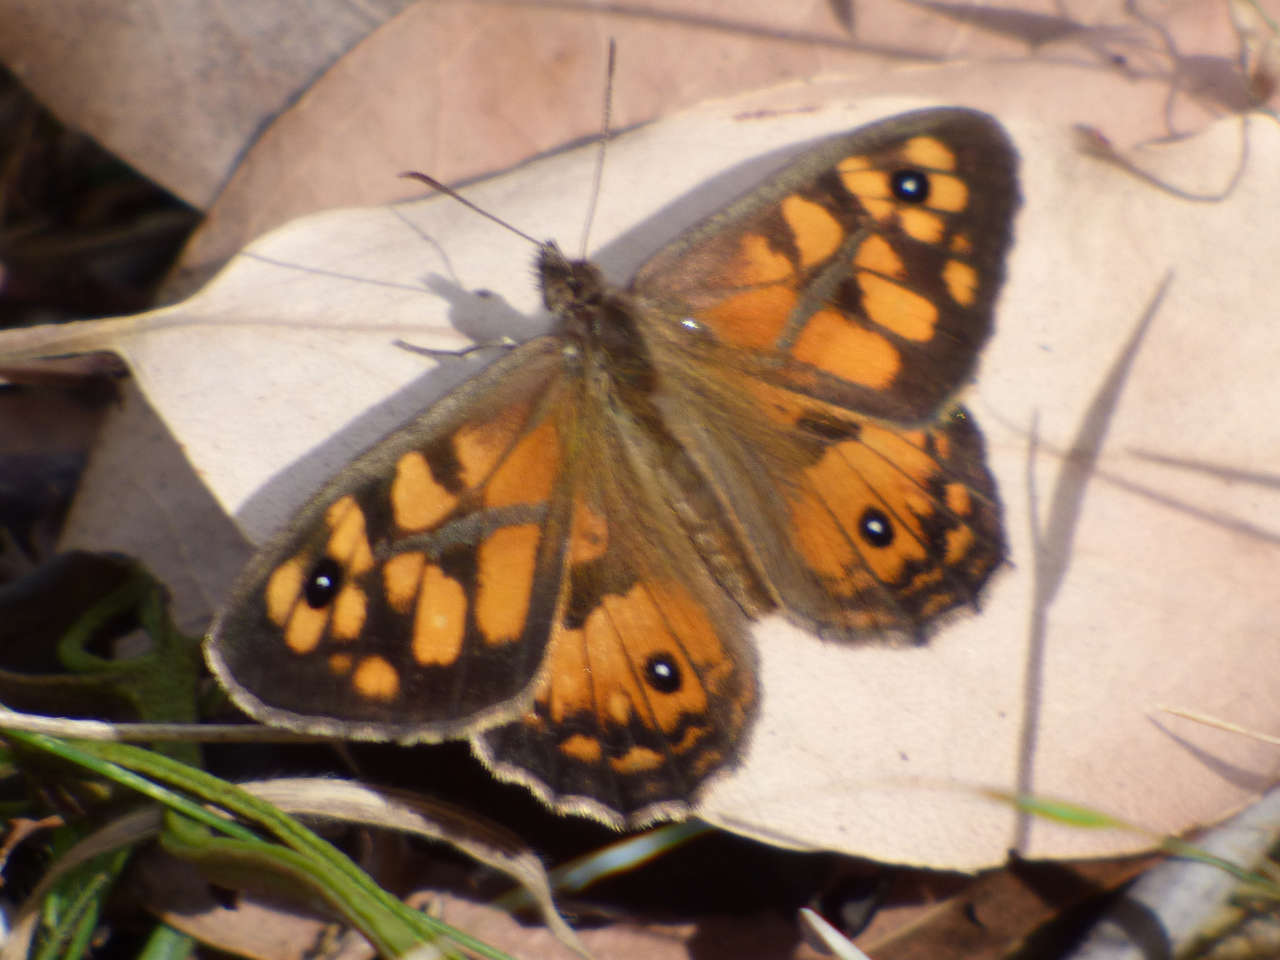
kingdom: Animalia
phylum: Arthropoda
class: Insecta
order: Lepidoptera
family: Nymphalidae
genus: Geitoneura
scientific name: Geitoneura klugii
